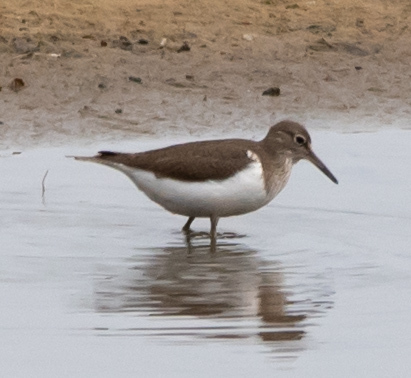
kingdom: Animalia
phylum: Chordata
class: Aves
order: Charadriiformes
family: Scolopacidae
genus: Actitis
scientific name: Actitis hypoleucos
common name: Common sandpiper
